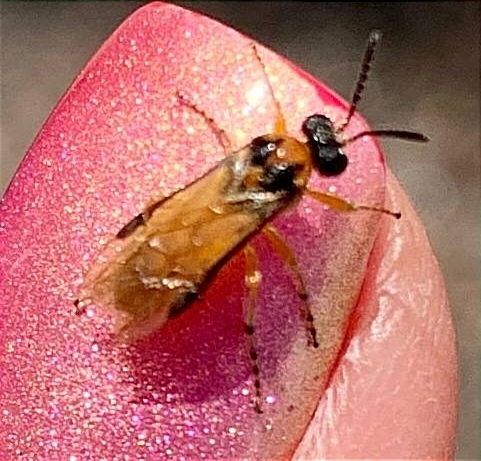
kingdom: Animalia
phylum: Arthropoda
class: Insecta
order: Hymenoptera
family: Tenthredinidae
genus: Athalia
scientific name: Athalia rosae
